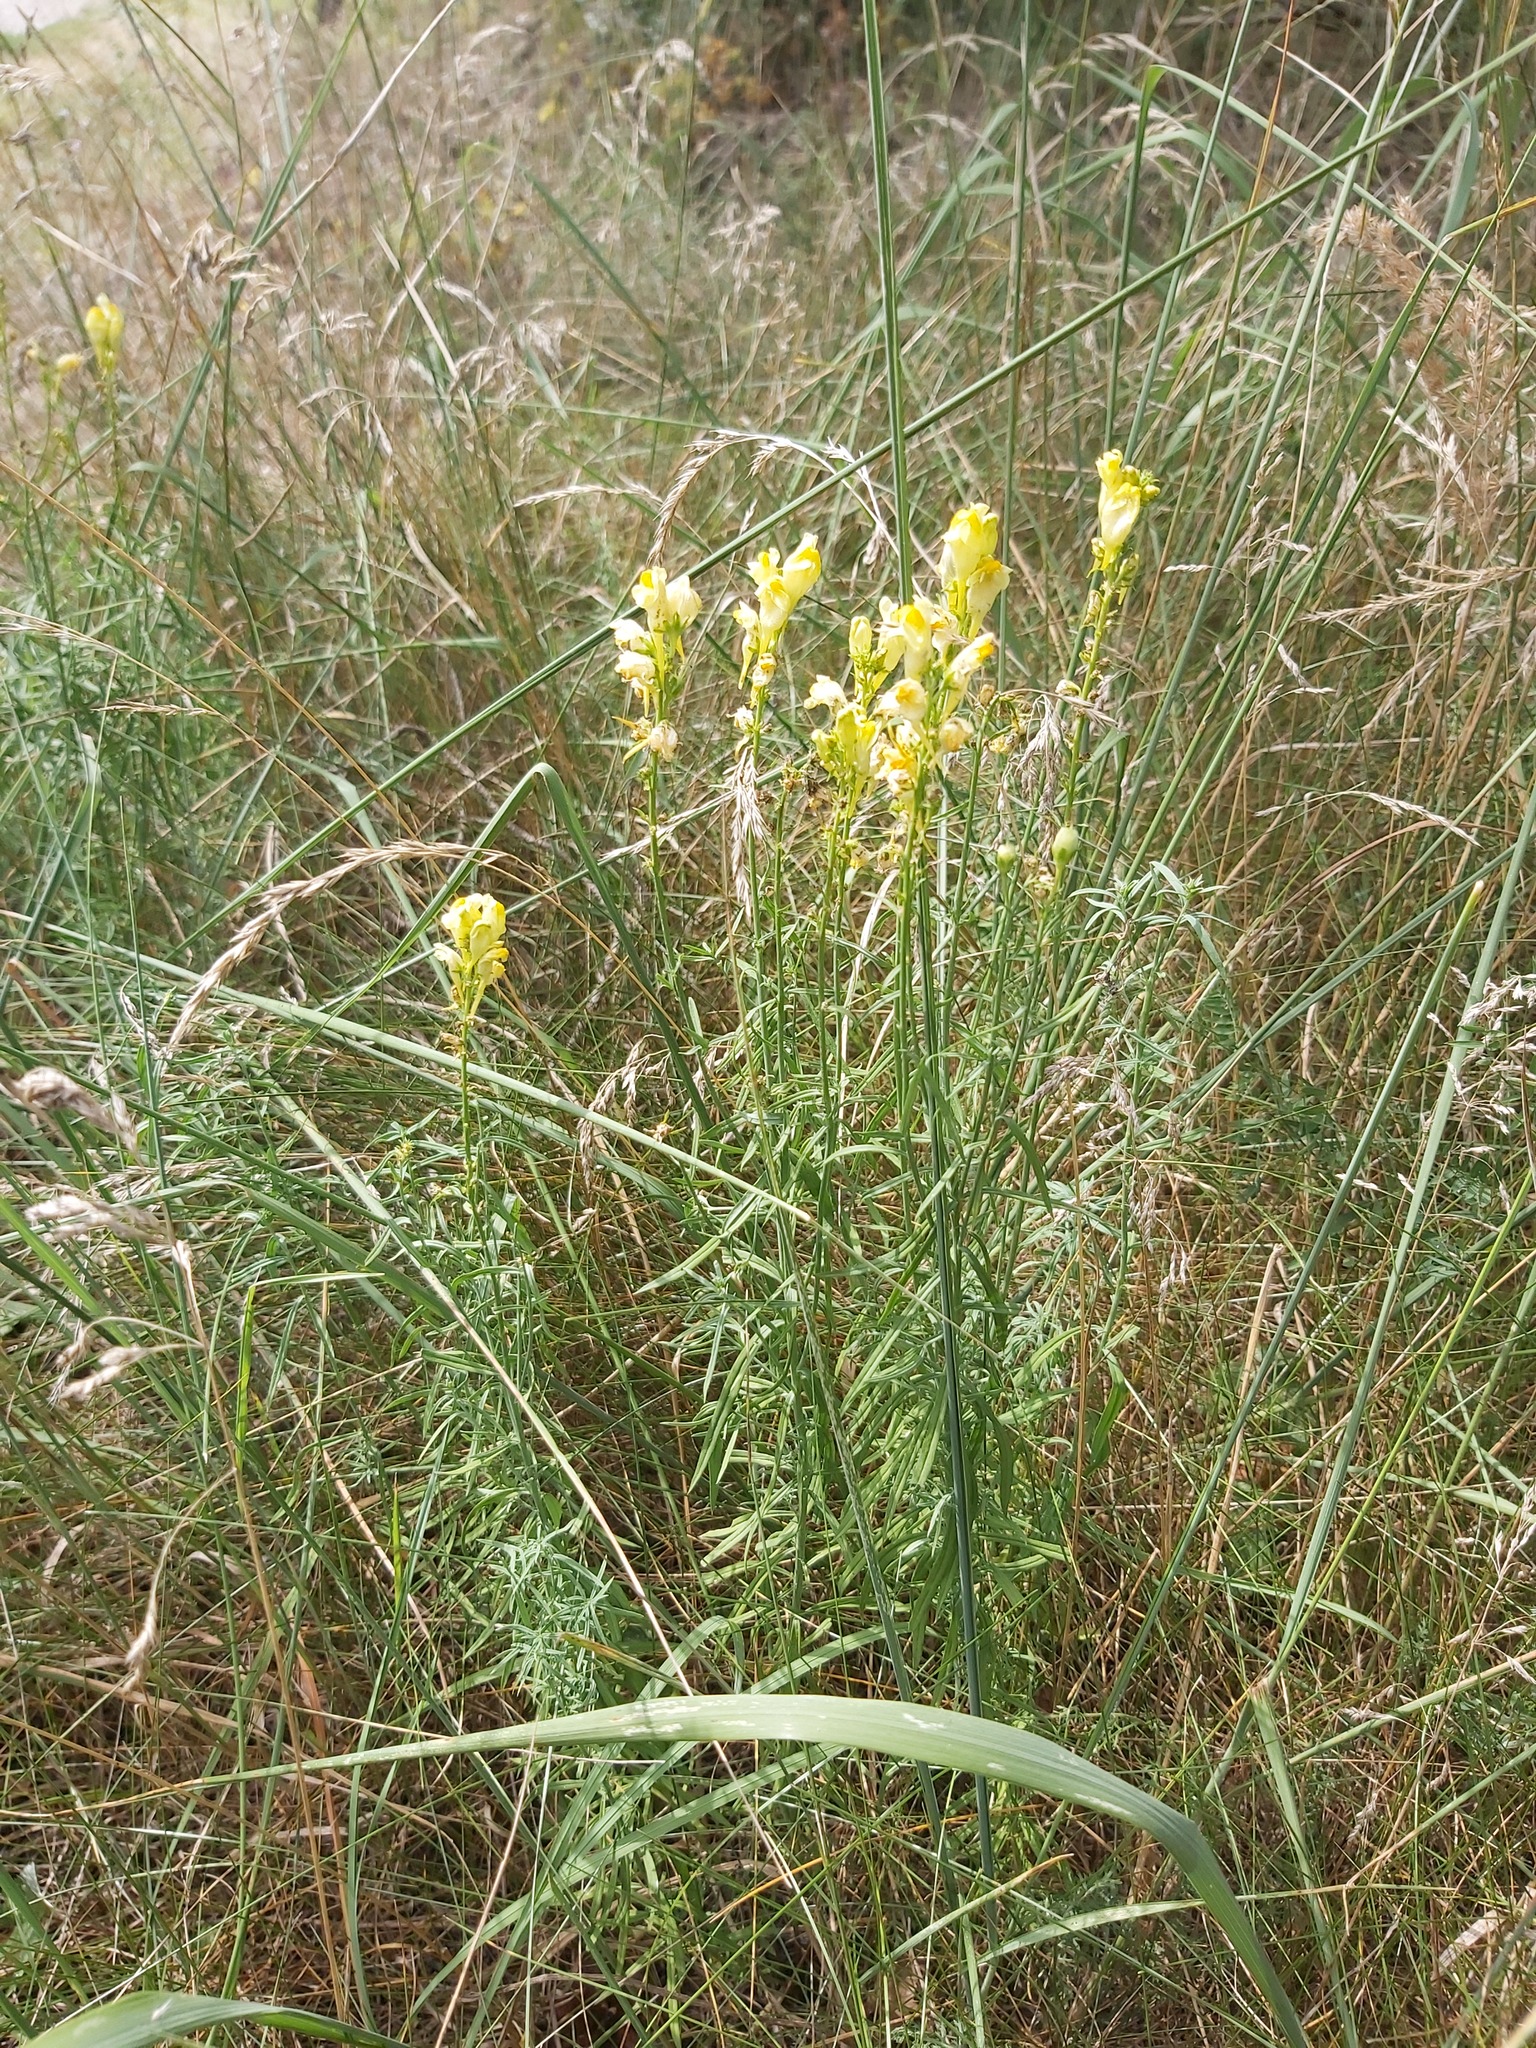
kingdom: Plantae
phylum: Tracheophyta
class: Magnoliopsida
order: Lamiales
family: Plantaginaceae
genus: Linaria
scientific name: Linaria vulgaris
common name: Butter and eggs
